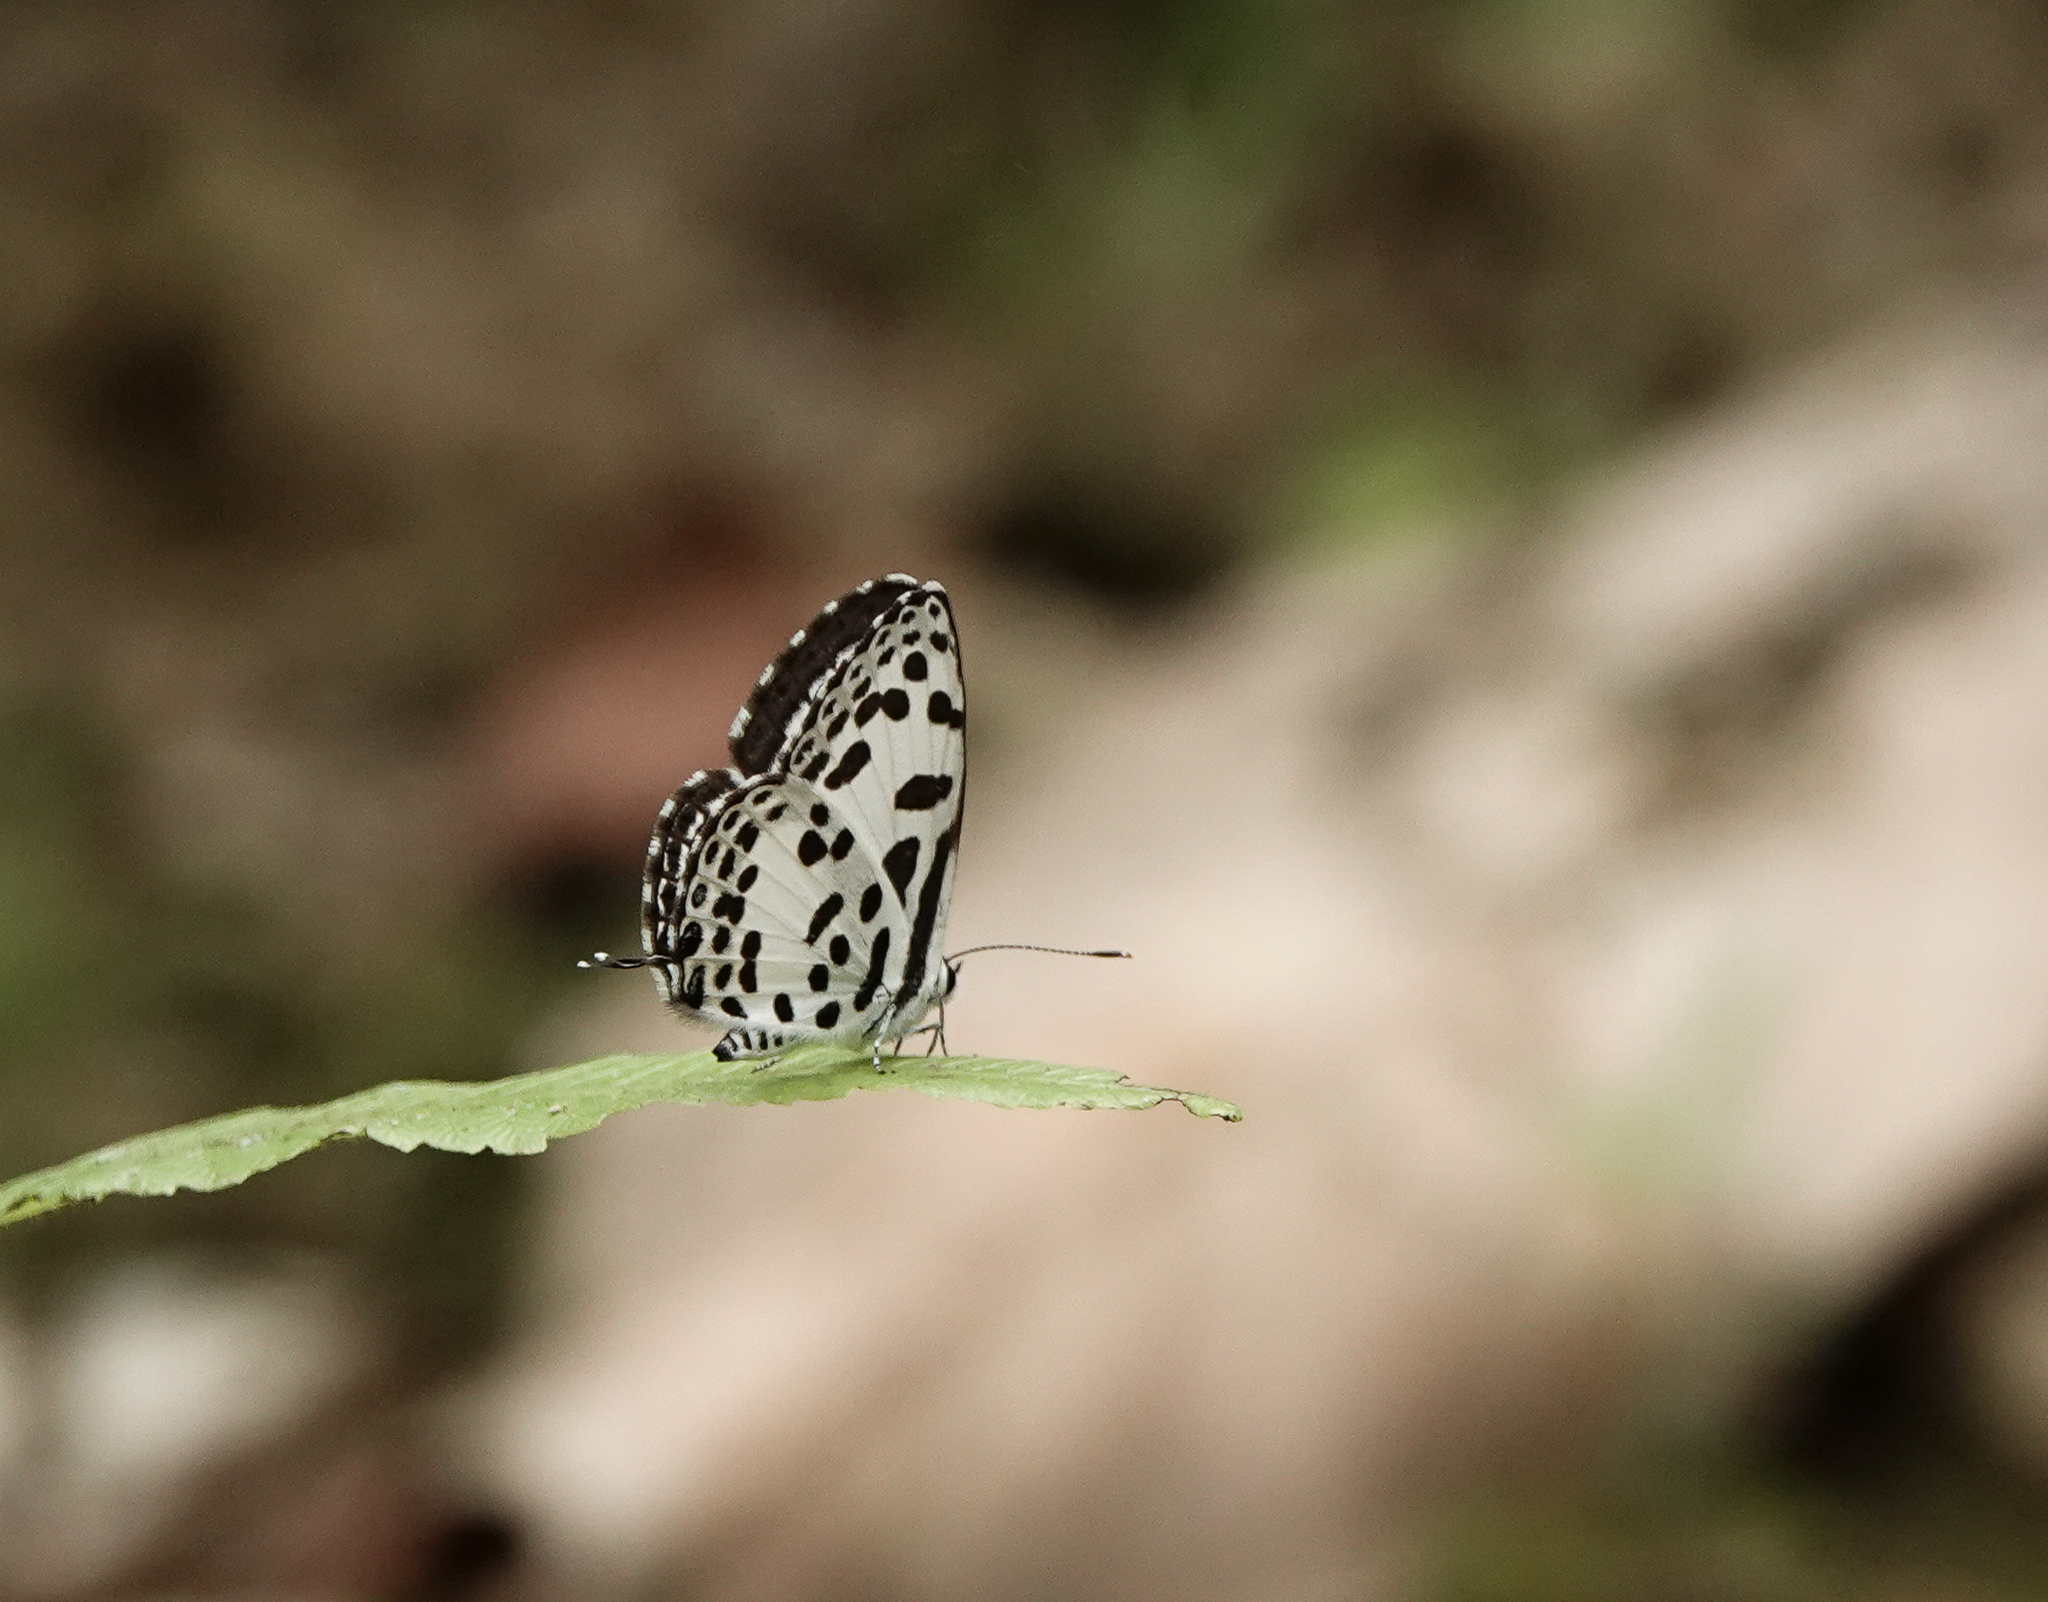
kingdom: Animalia
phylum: Arthropoda
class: Insecta
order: Lepidoptera
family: Lycaenidae
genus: Castalius
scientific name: Castalius rosimon
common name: Common pierrot
